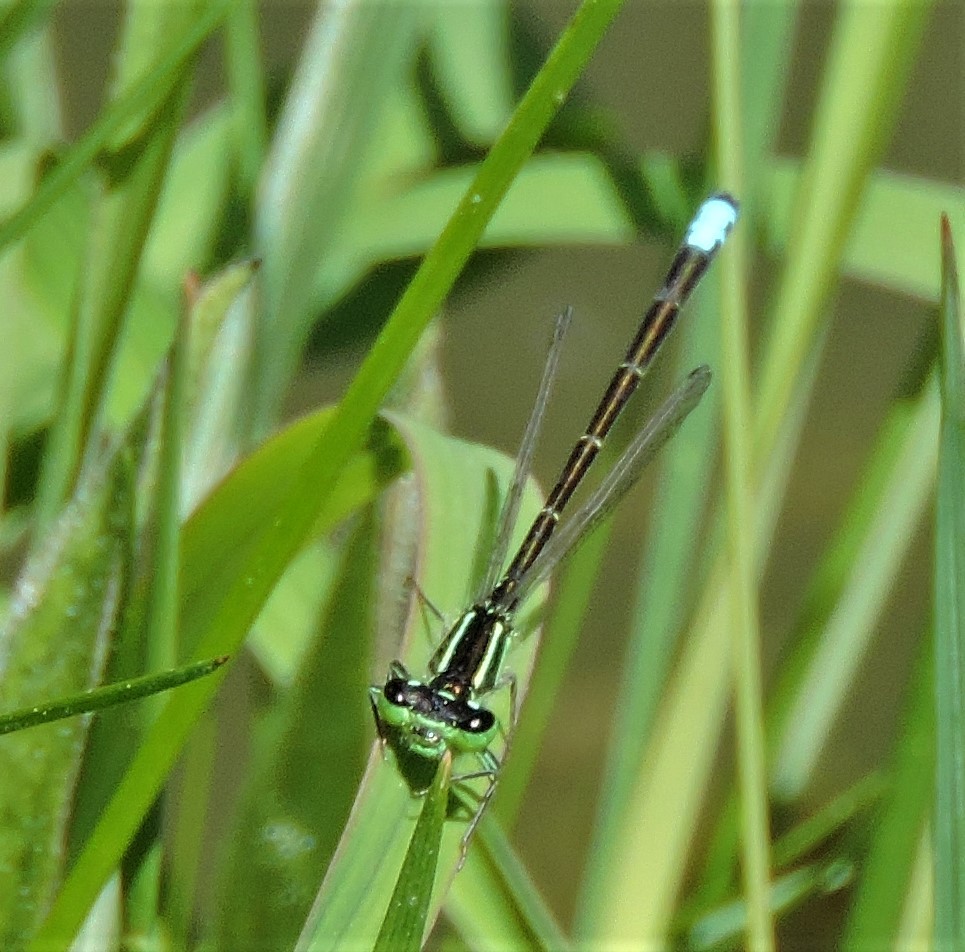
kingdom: Animalia
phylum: Arthropoda
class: Insecta
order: Odonata
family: Coenagrionidae
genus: Ischnura
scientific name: Ischnura verticalis
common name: Eastern forktail
